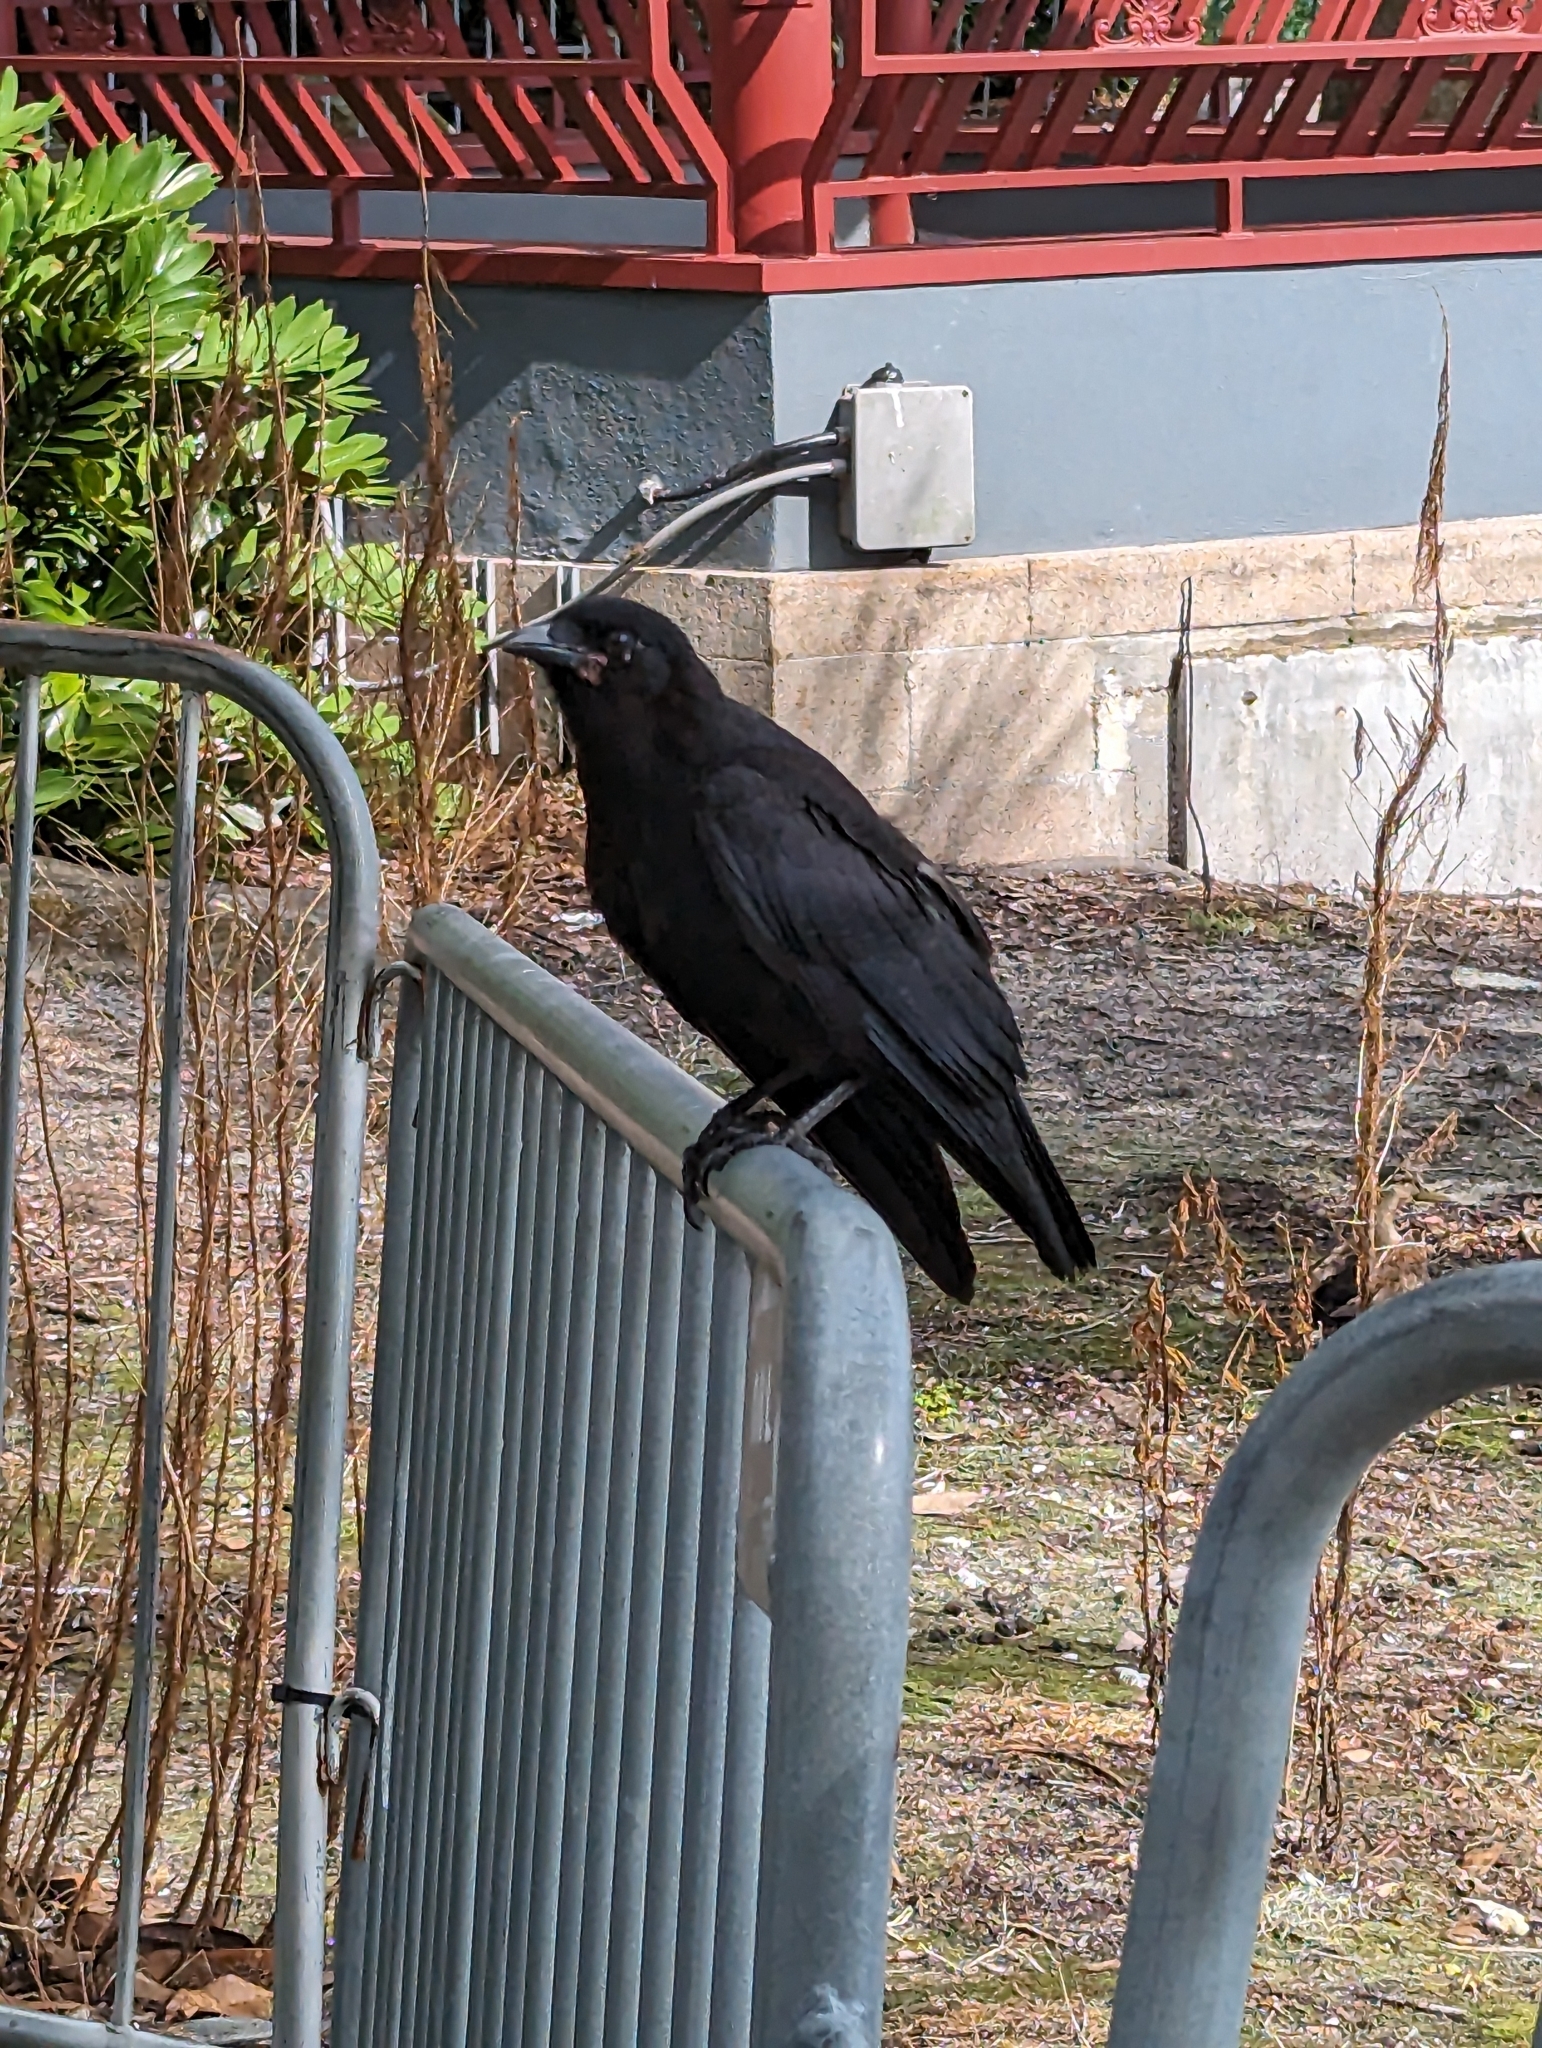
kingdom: Animalia
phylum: Chordata
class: Aves
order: Passeriformes
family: Corvidae
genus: Corvus
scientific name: Corvus brachyrhynchos
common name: American crow
